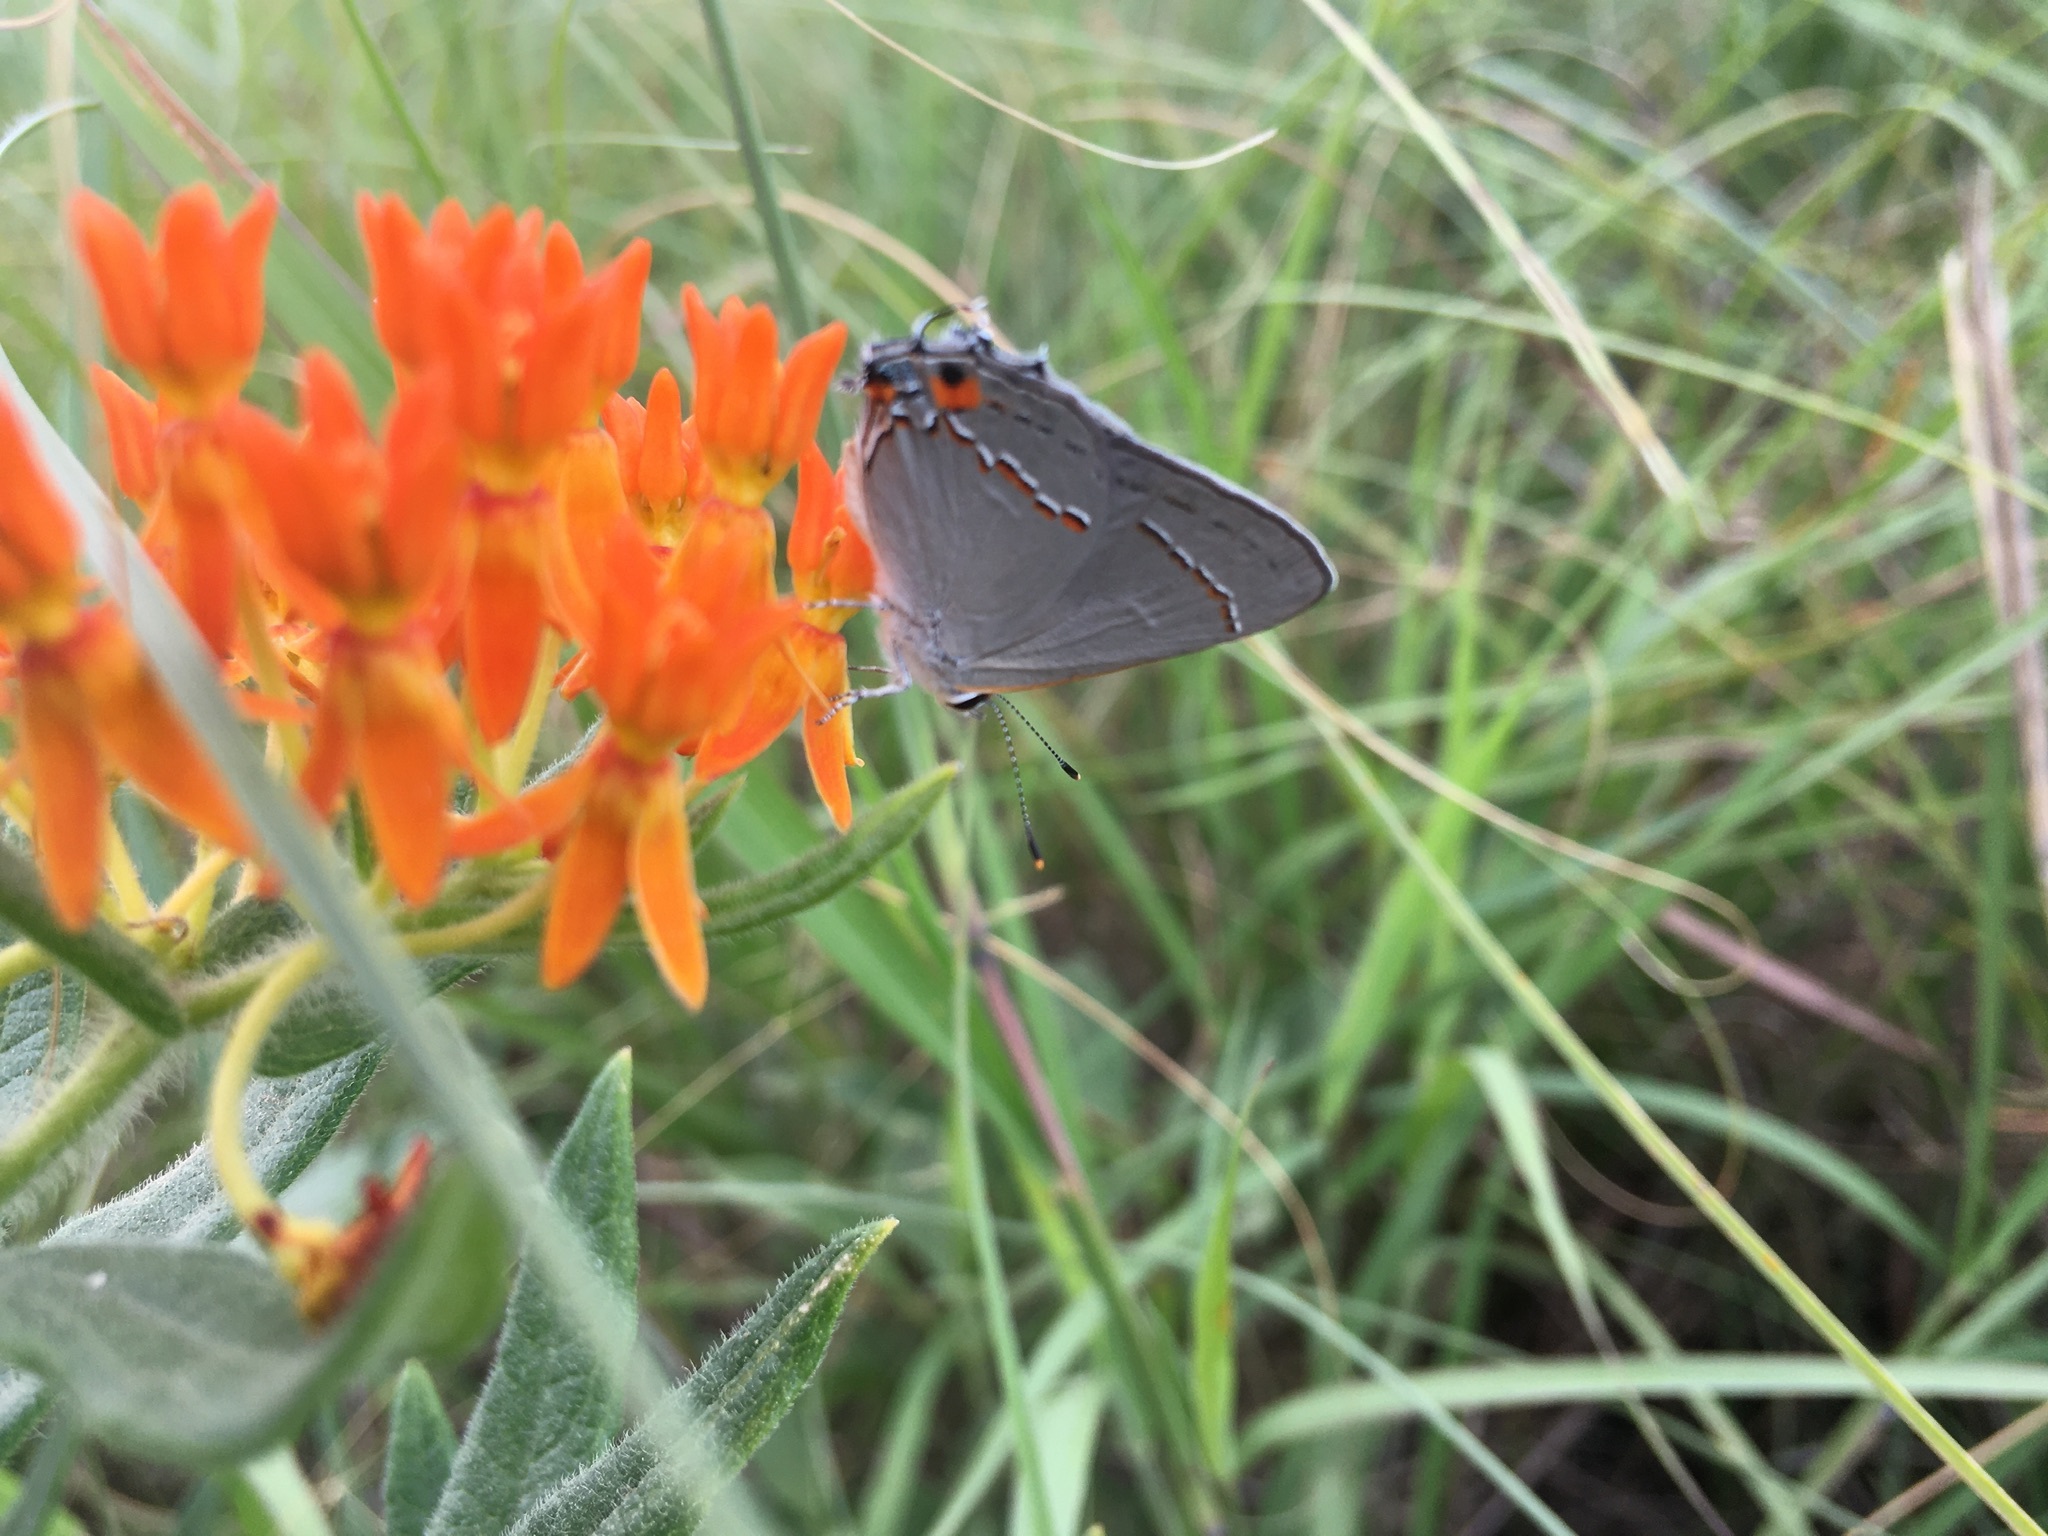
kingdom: Animalia
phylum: Arthropoda
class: Insecta
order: Lepidoptera
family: Lycaenidae
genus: Strymon
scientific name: Strymon melinus
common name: Gray hairstreak
